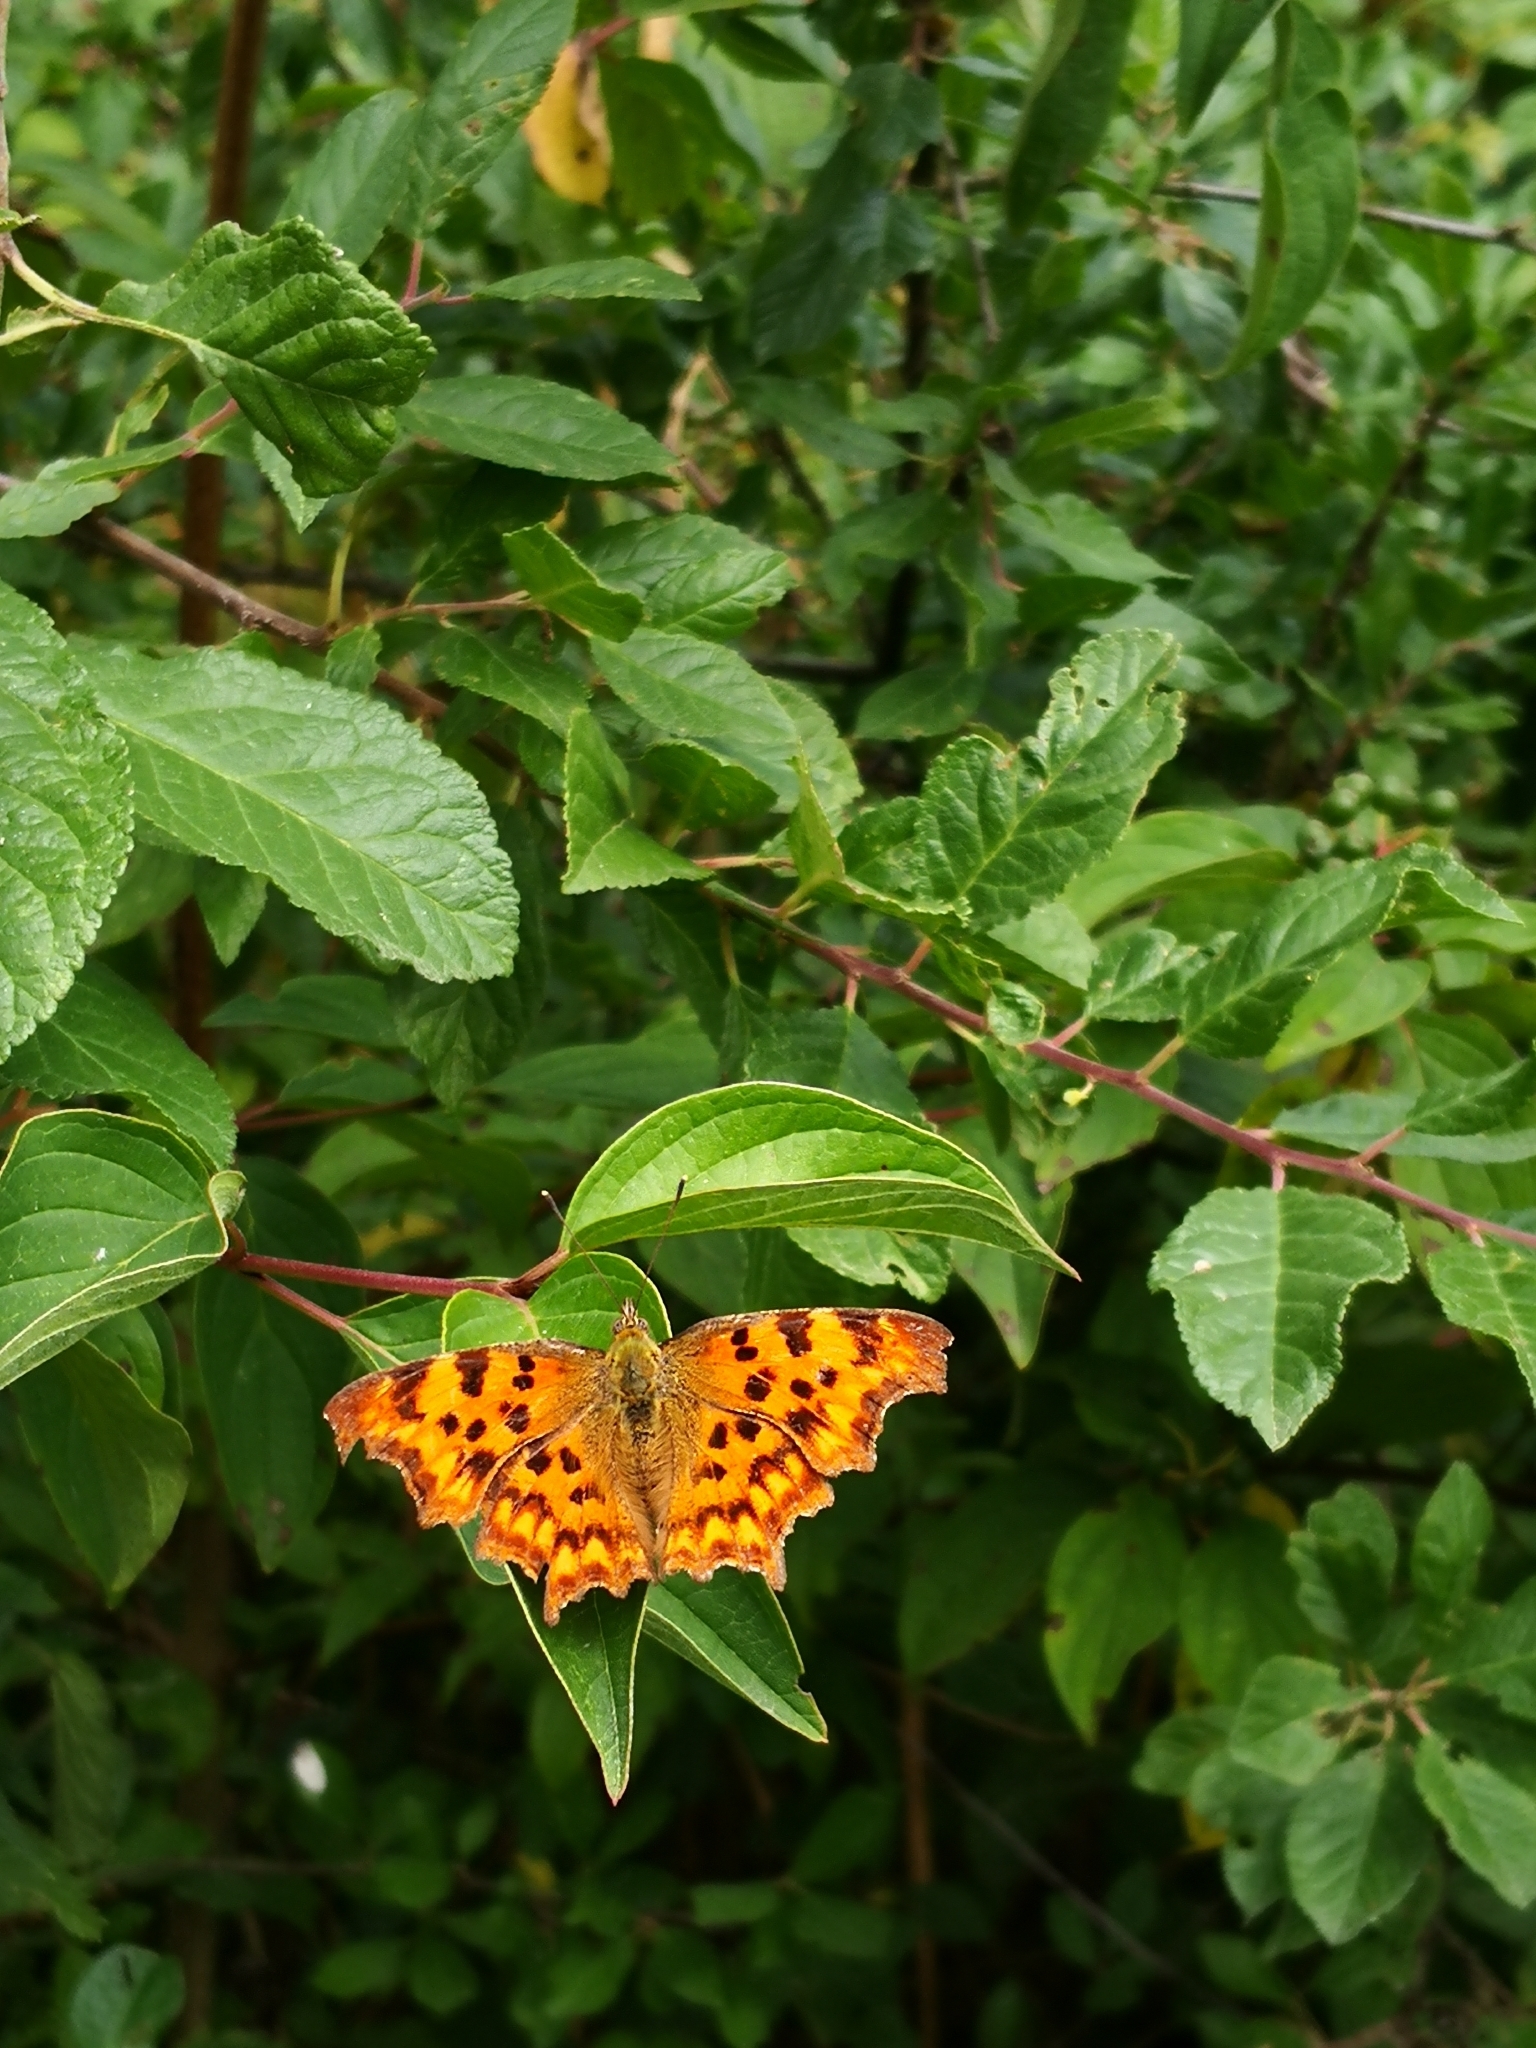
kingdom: Animalia
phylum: Arthropoda
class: Insecta
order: Lepidoptera
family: Nymphalidae
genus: Polygonia
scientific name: Polygonia c-album
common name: Comma
